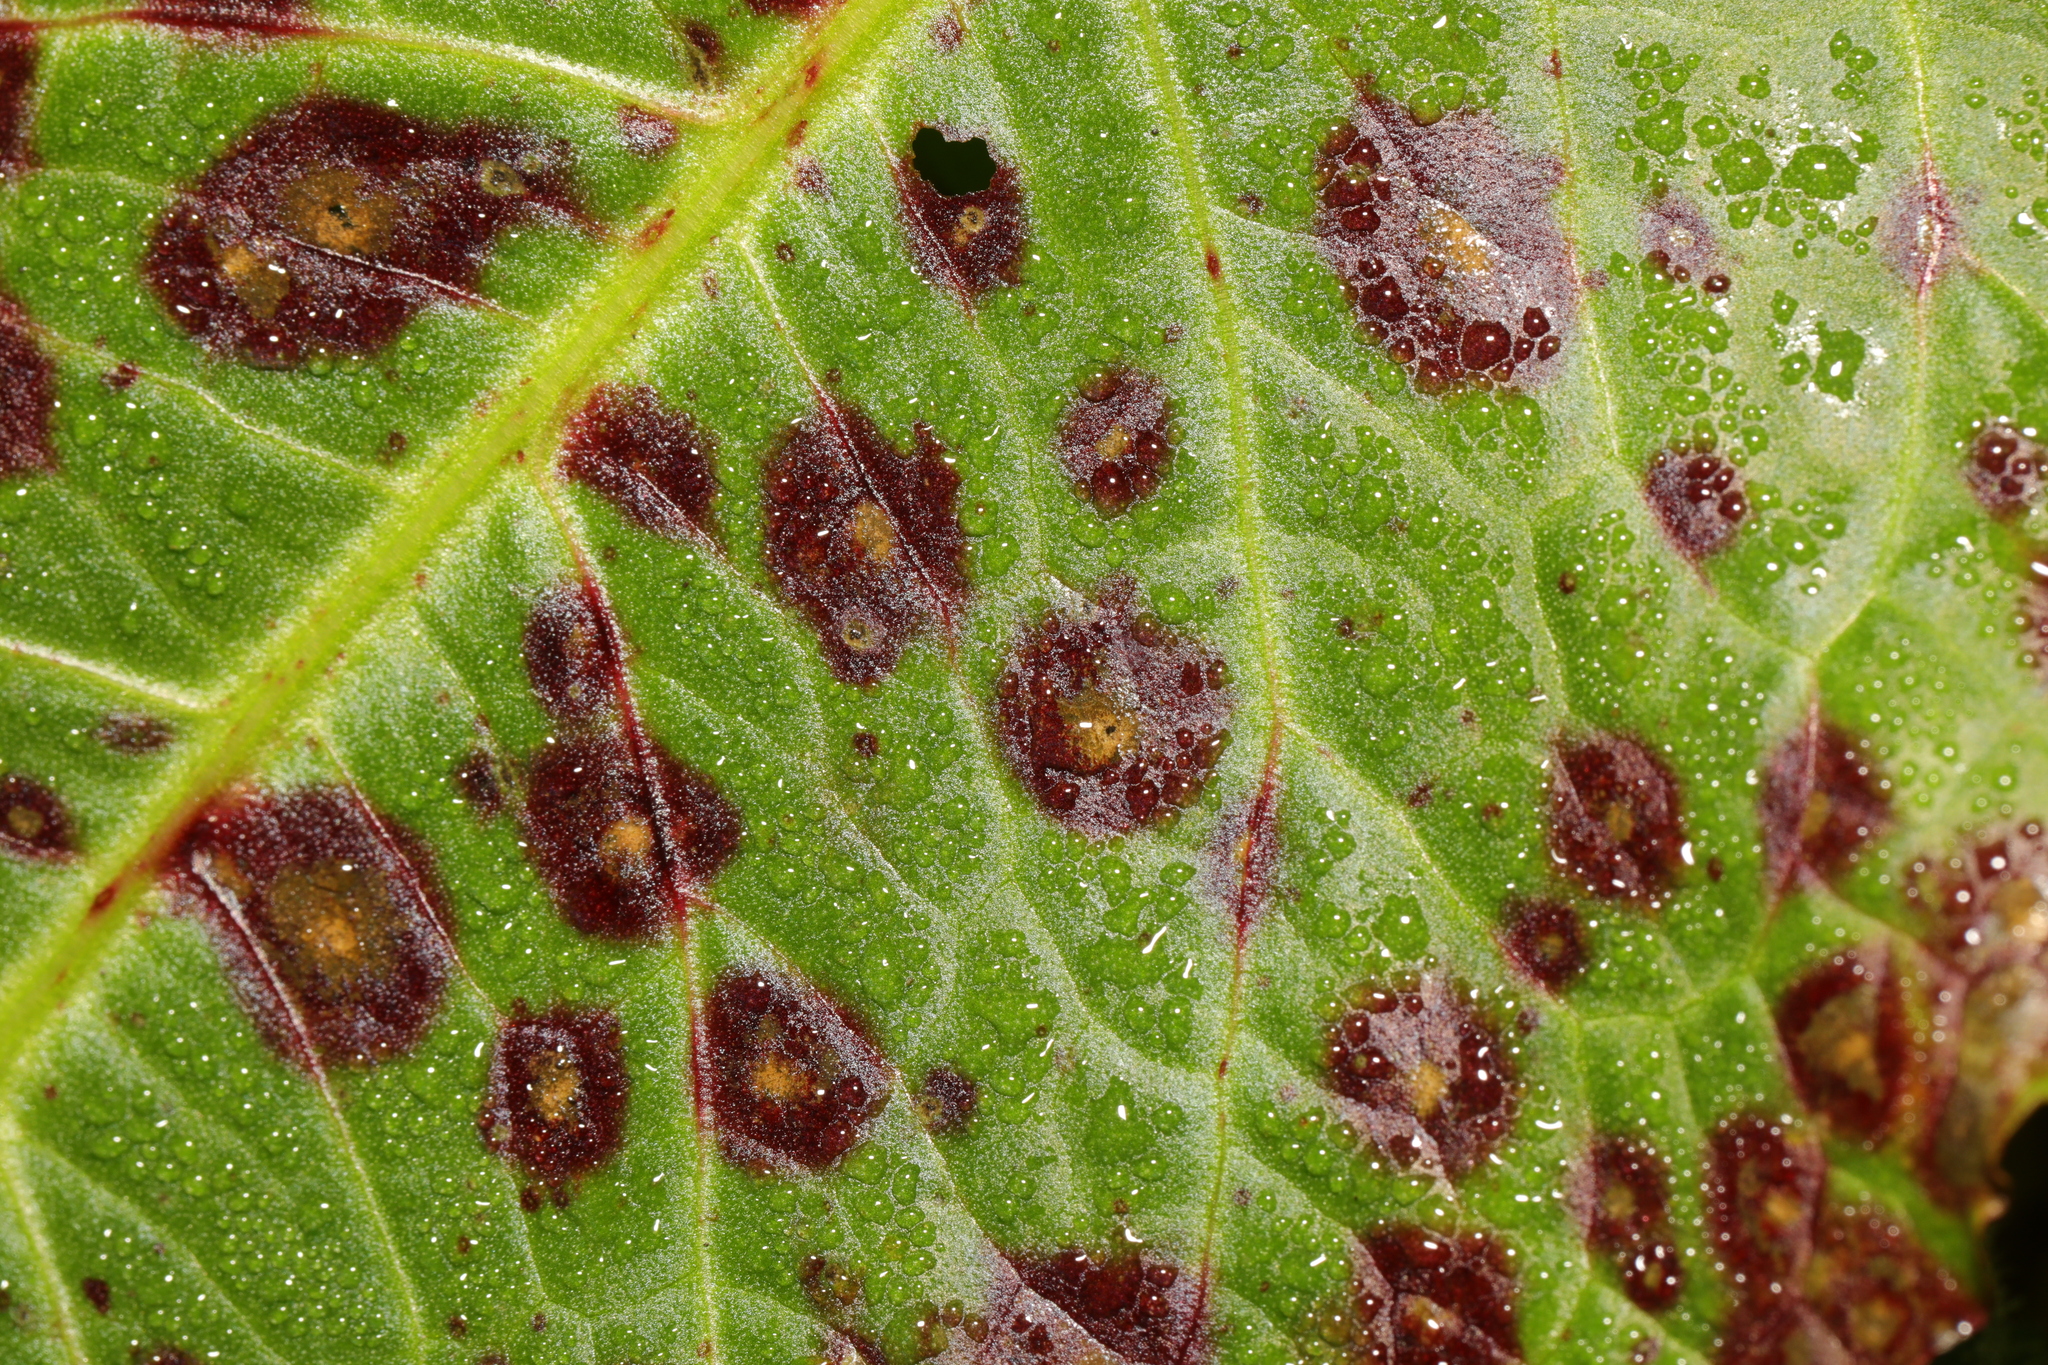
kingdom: Fungi
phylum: Ascomycota
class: Dothideomycetes
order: Mycosphaerellales
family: Mycosphaerellaceae
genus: Ramularia
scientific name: Ramularia rubella
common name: Red dock spot
